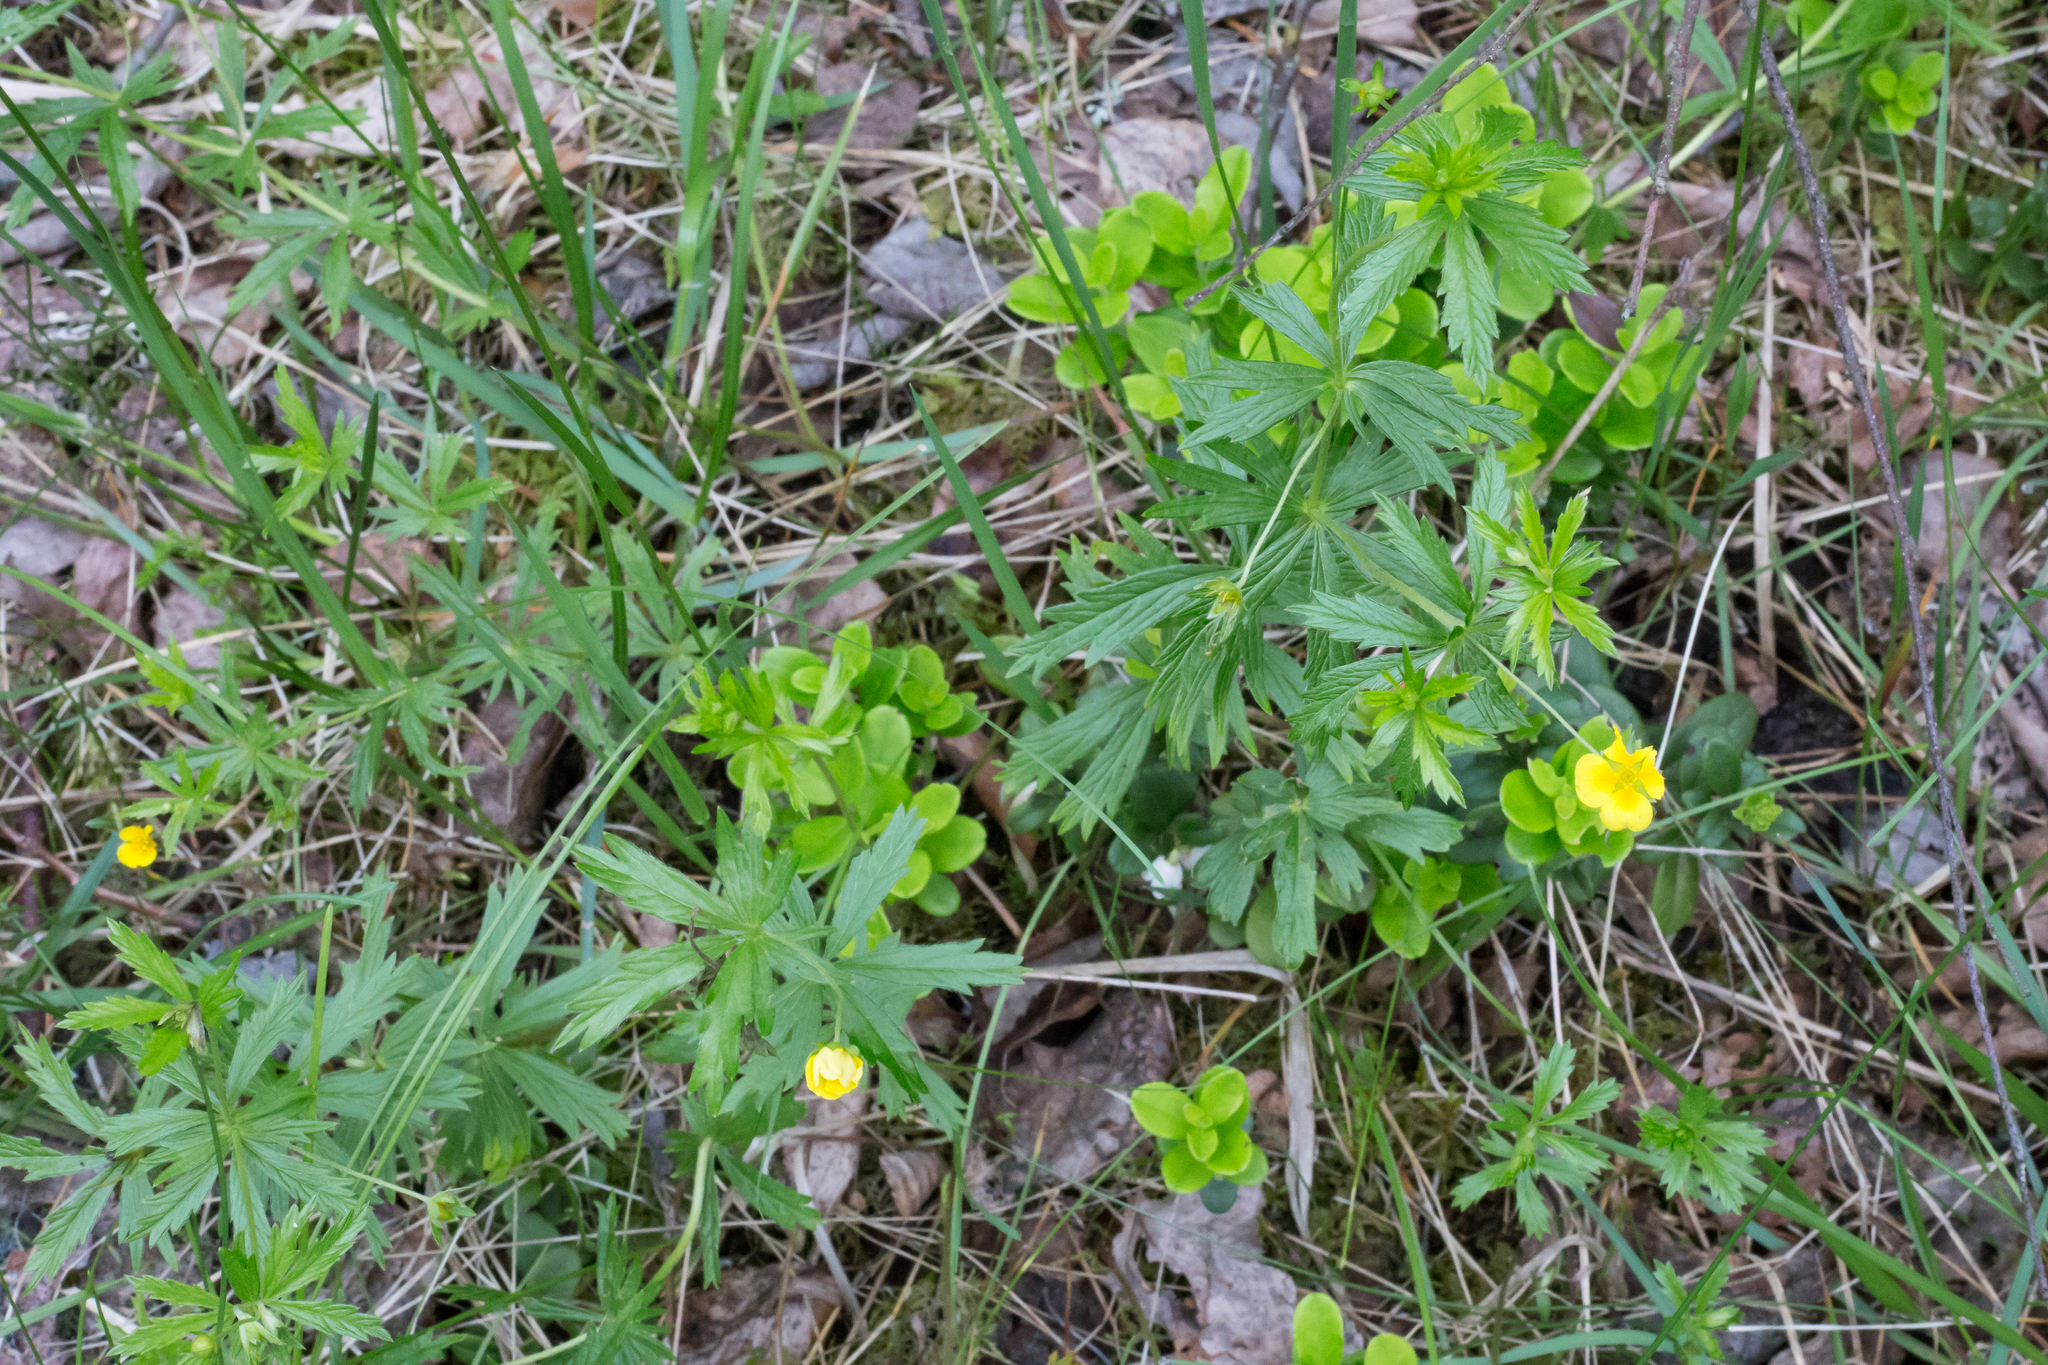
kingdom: Plantae
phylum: Tracheophyta
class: Magnoliopsida
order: Rosales
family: Rosaceae
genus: Potentilla
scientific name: Potentilla erecta
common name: Tormentil
